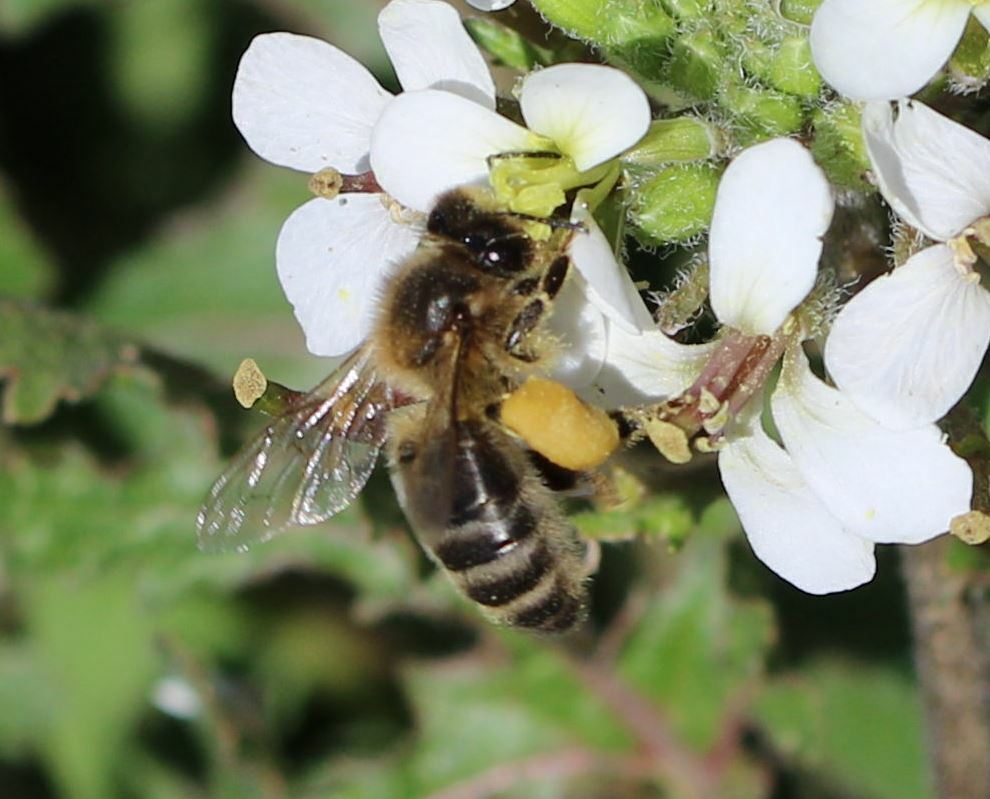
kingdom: Animalia
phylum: Arthropoda
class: Insecta
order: Hymenoptera
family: Apidae
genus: Apis
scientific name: Apis mellifera
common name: Honey bee
